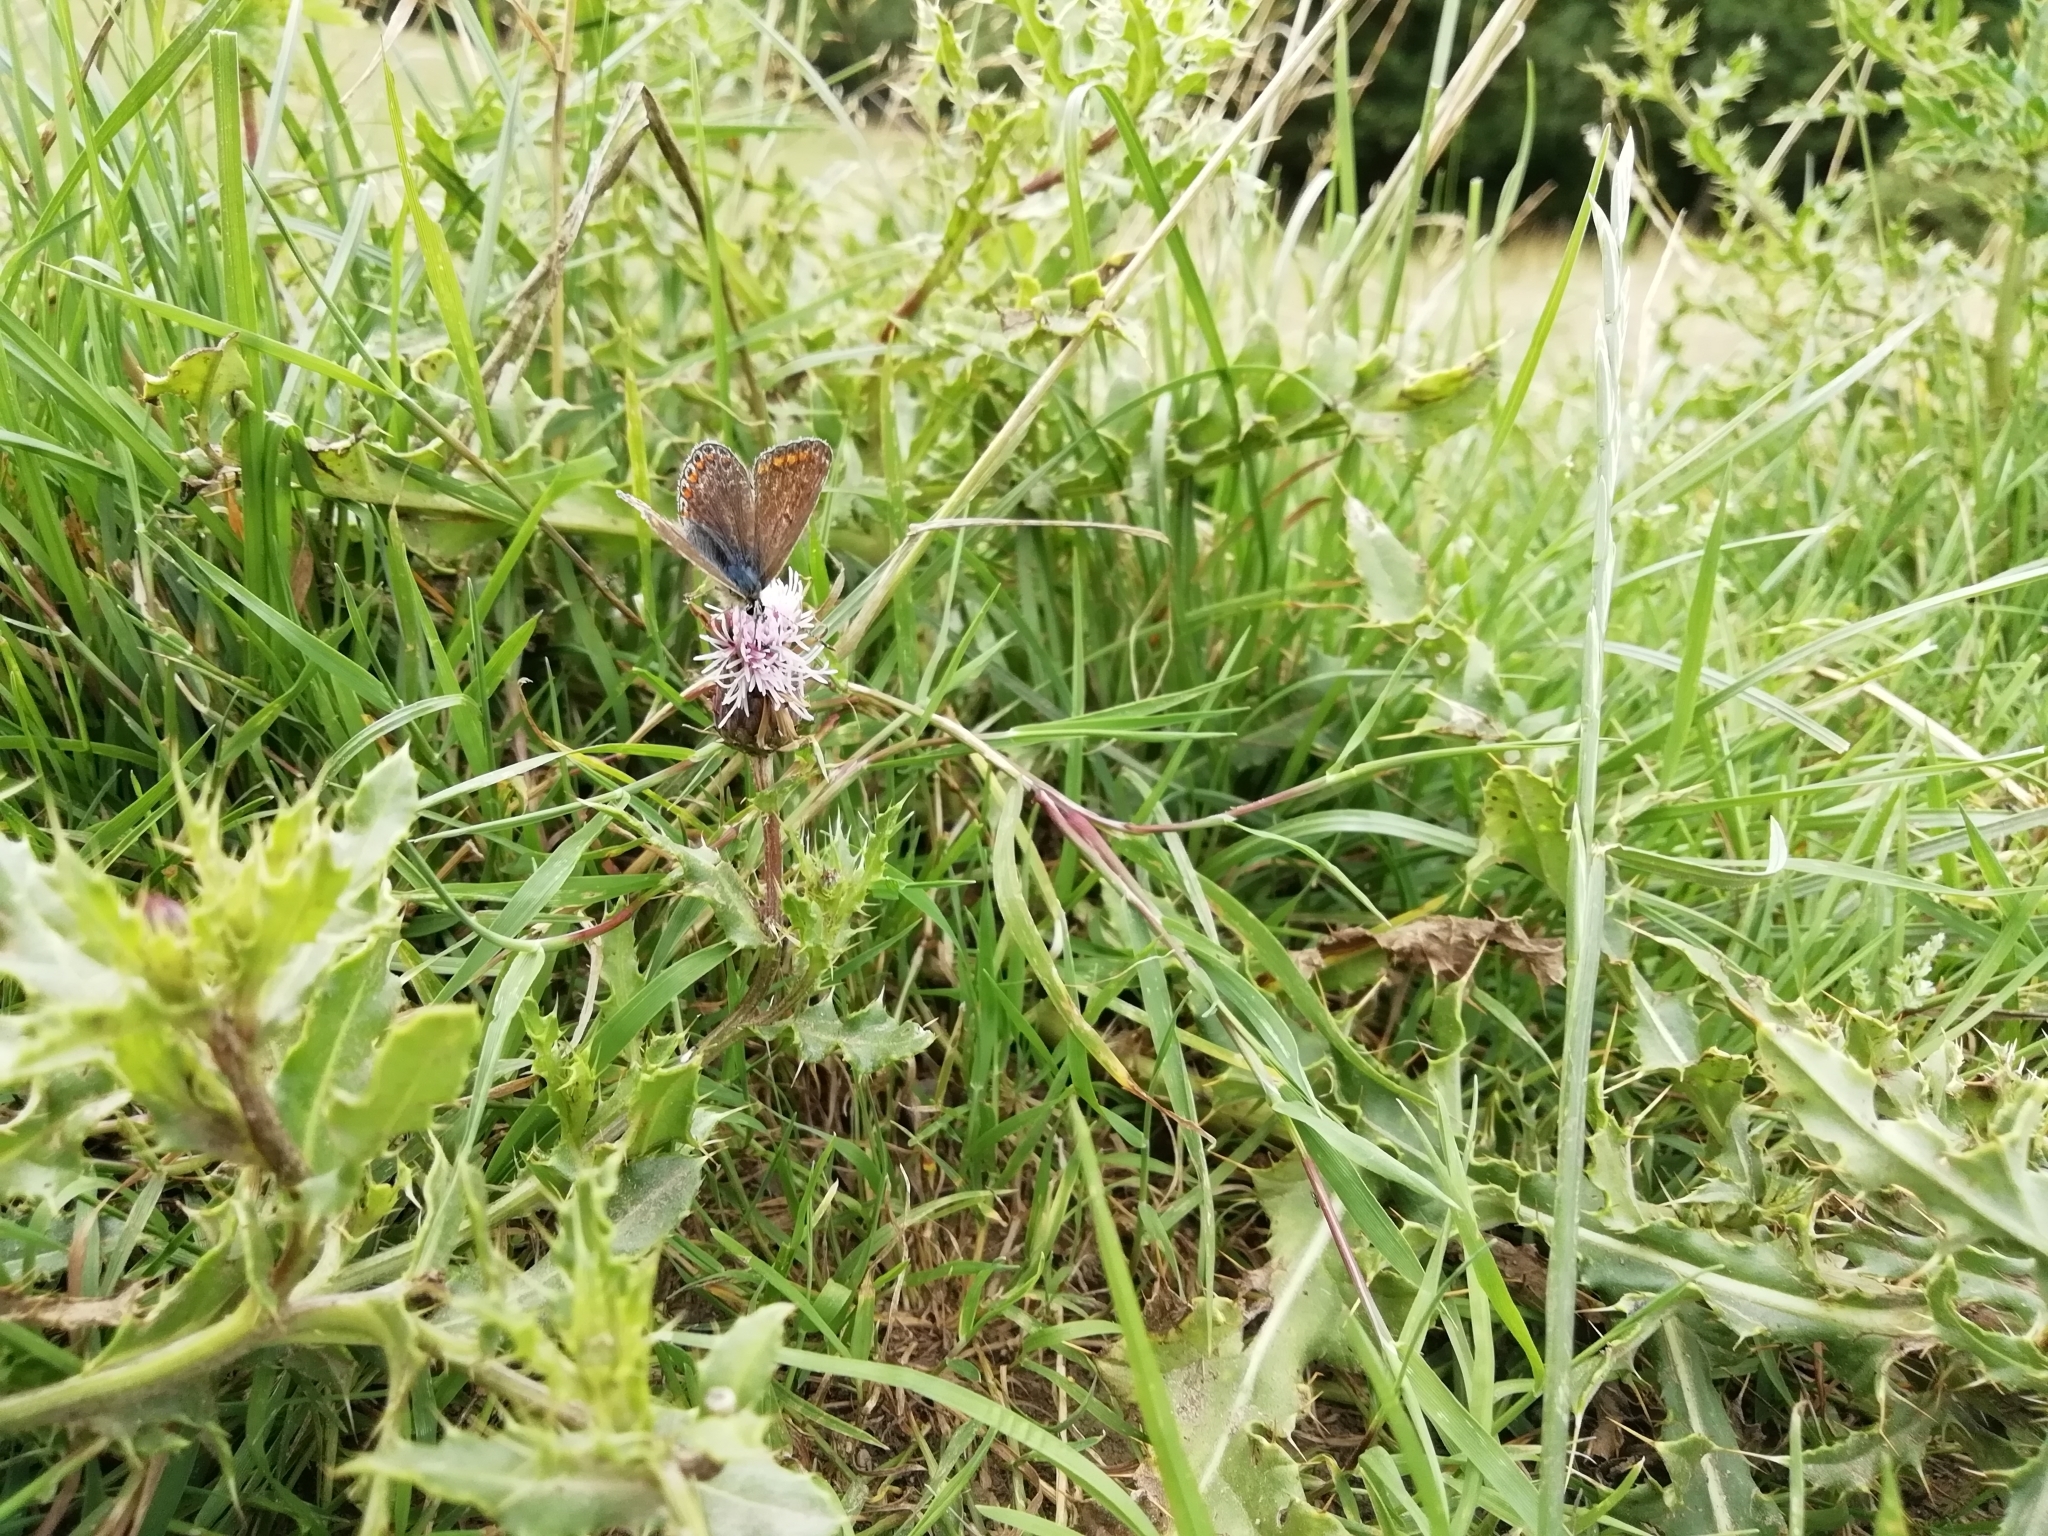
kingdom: Animalia
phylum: Arthropoda
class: Insecta
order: Lepidoptera
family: Lycaenidae
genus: Polyommatus
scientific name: Polyommatus icarus
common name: Common blue
